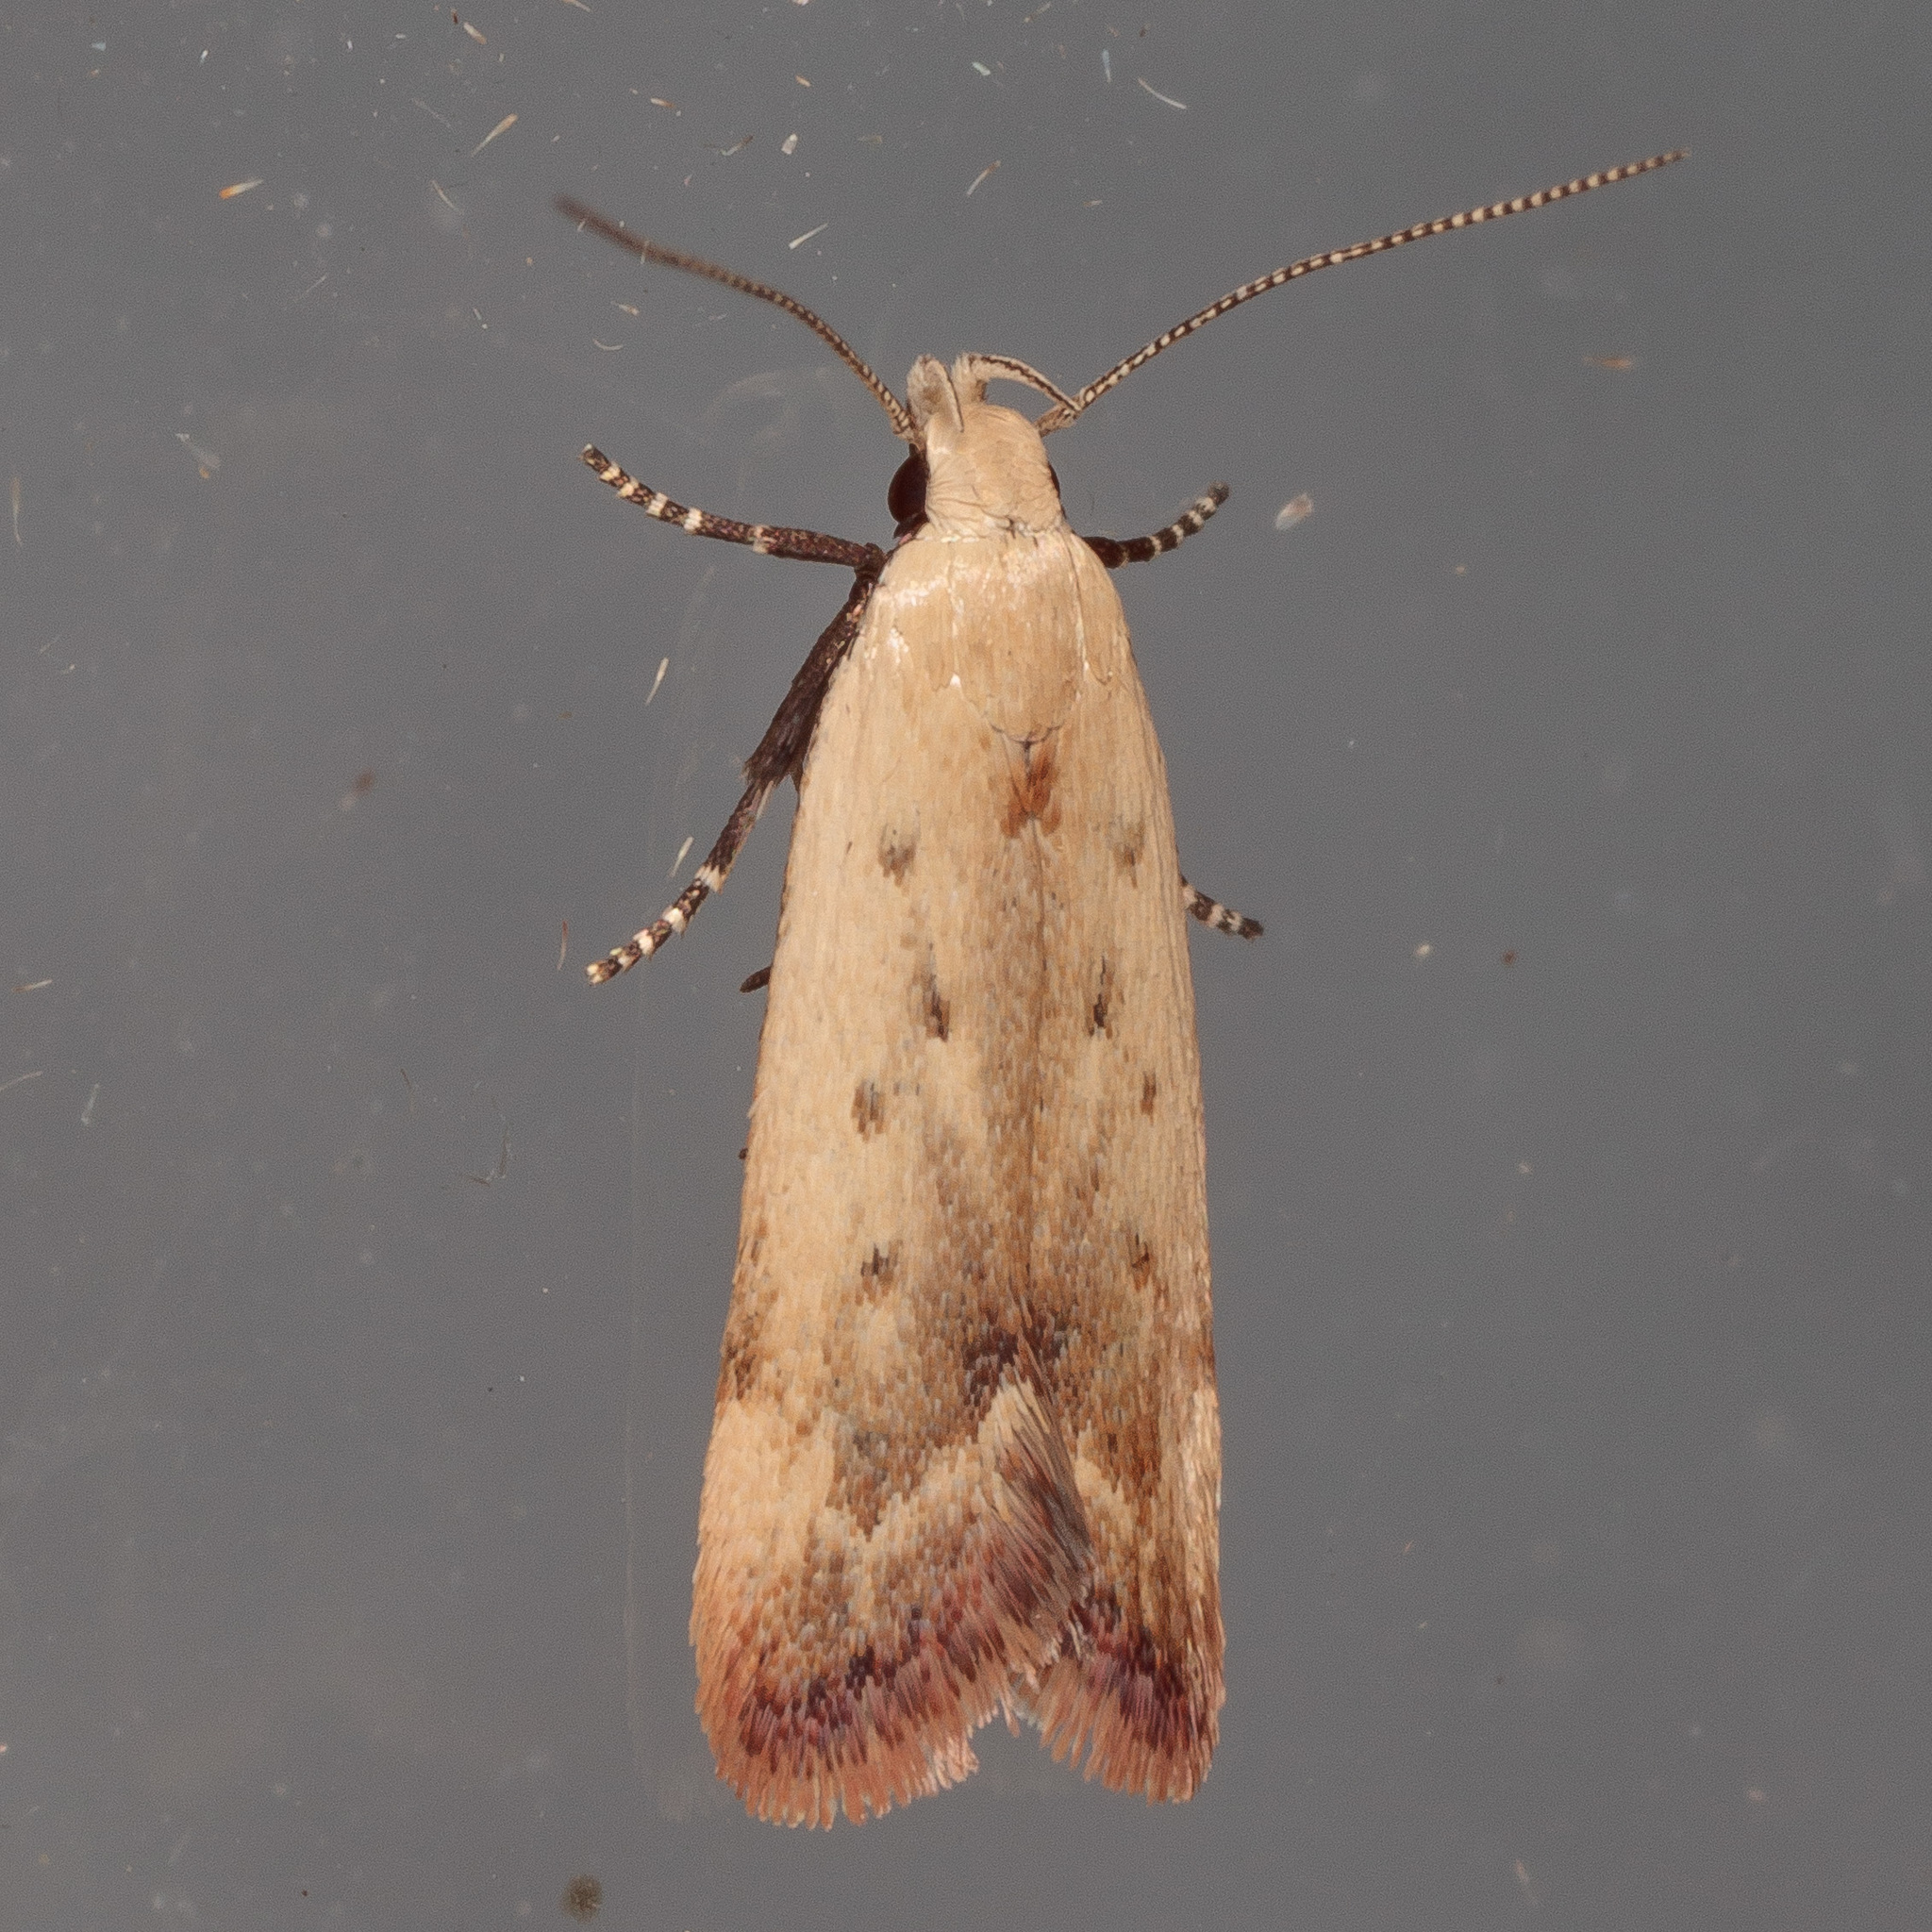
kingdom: Animalia
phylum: Arthropoda
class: Insecta
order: Lepidoptera
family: Gelechiidae
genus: Anacampsis
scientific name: Anacampsis fullonella
